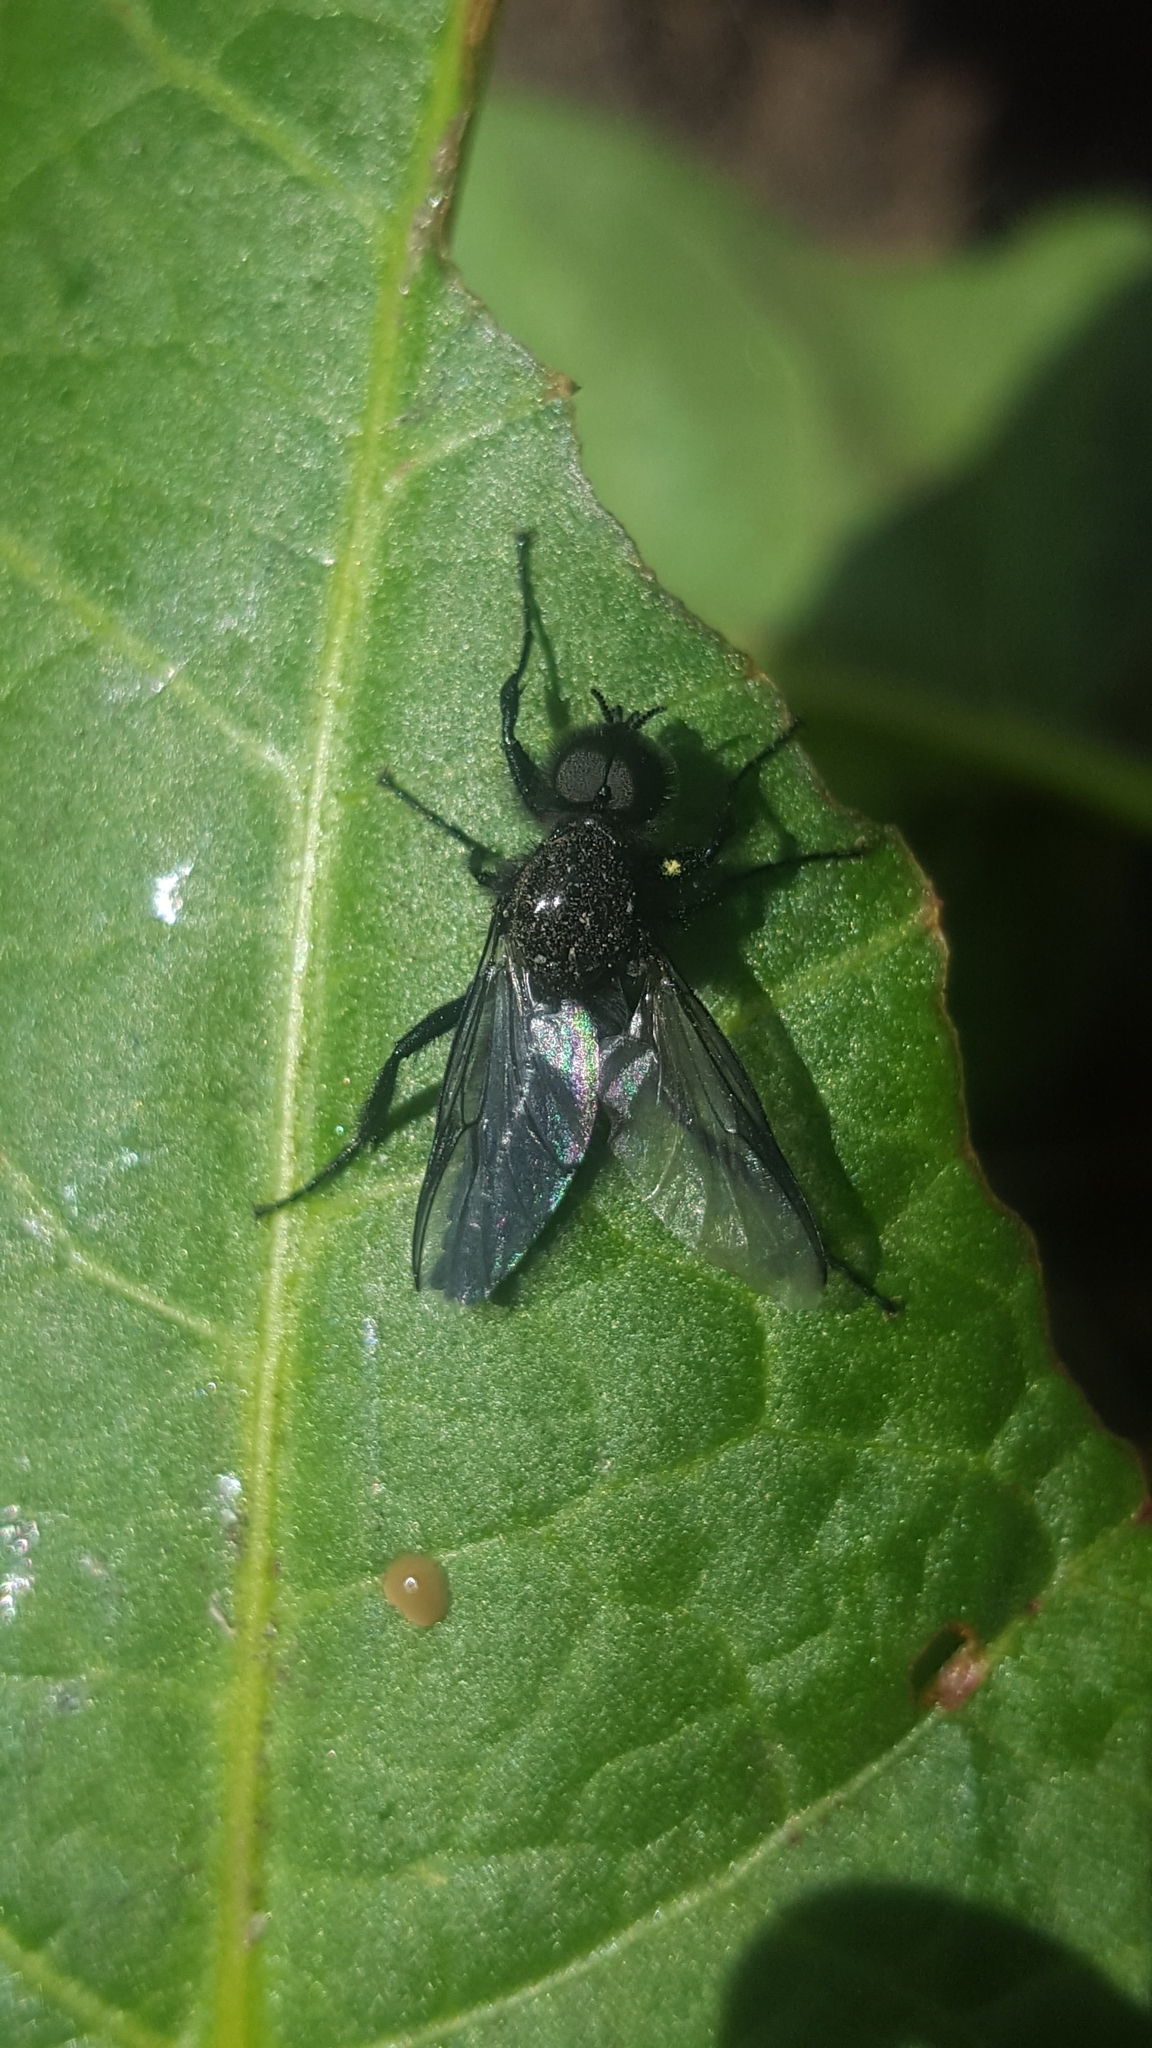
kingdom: Animalia
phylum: Arthropoda
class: Insecta
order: Diptera
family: Bibionidae
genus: Bibio
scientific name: Bibio marci
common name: St marks fly
